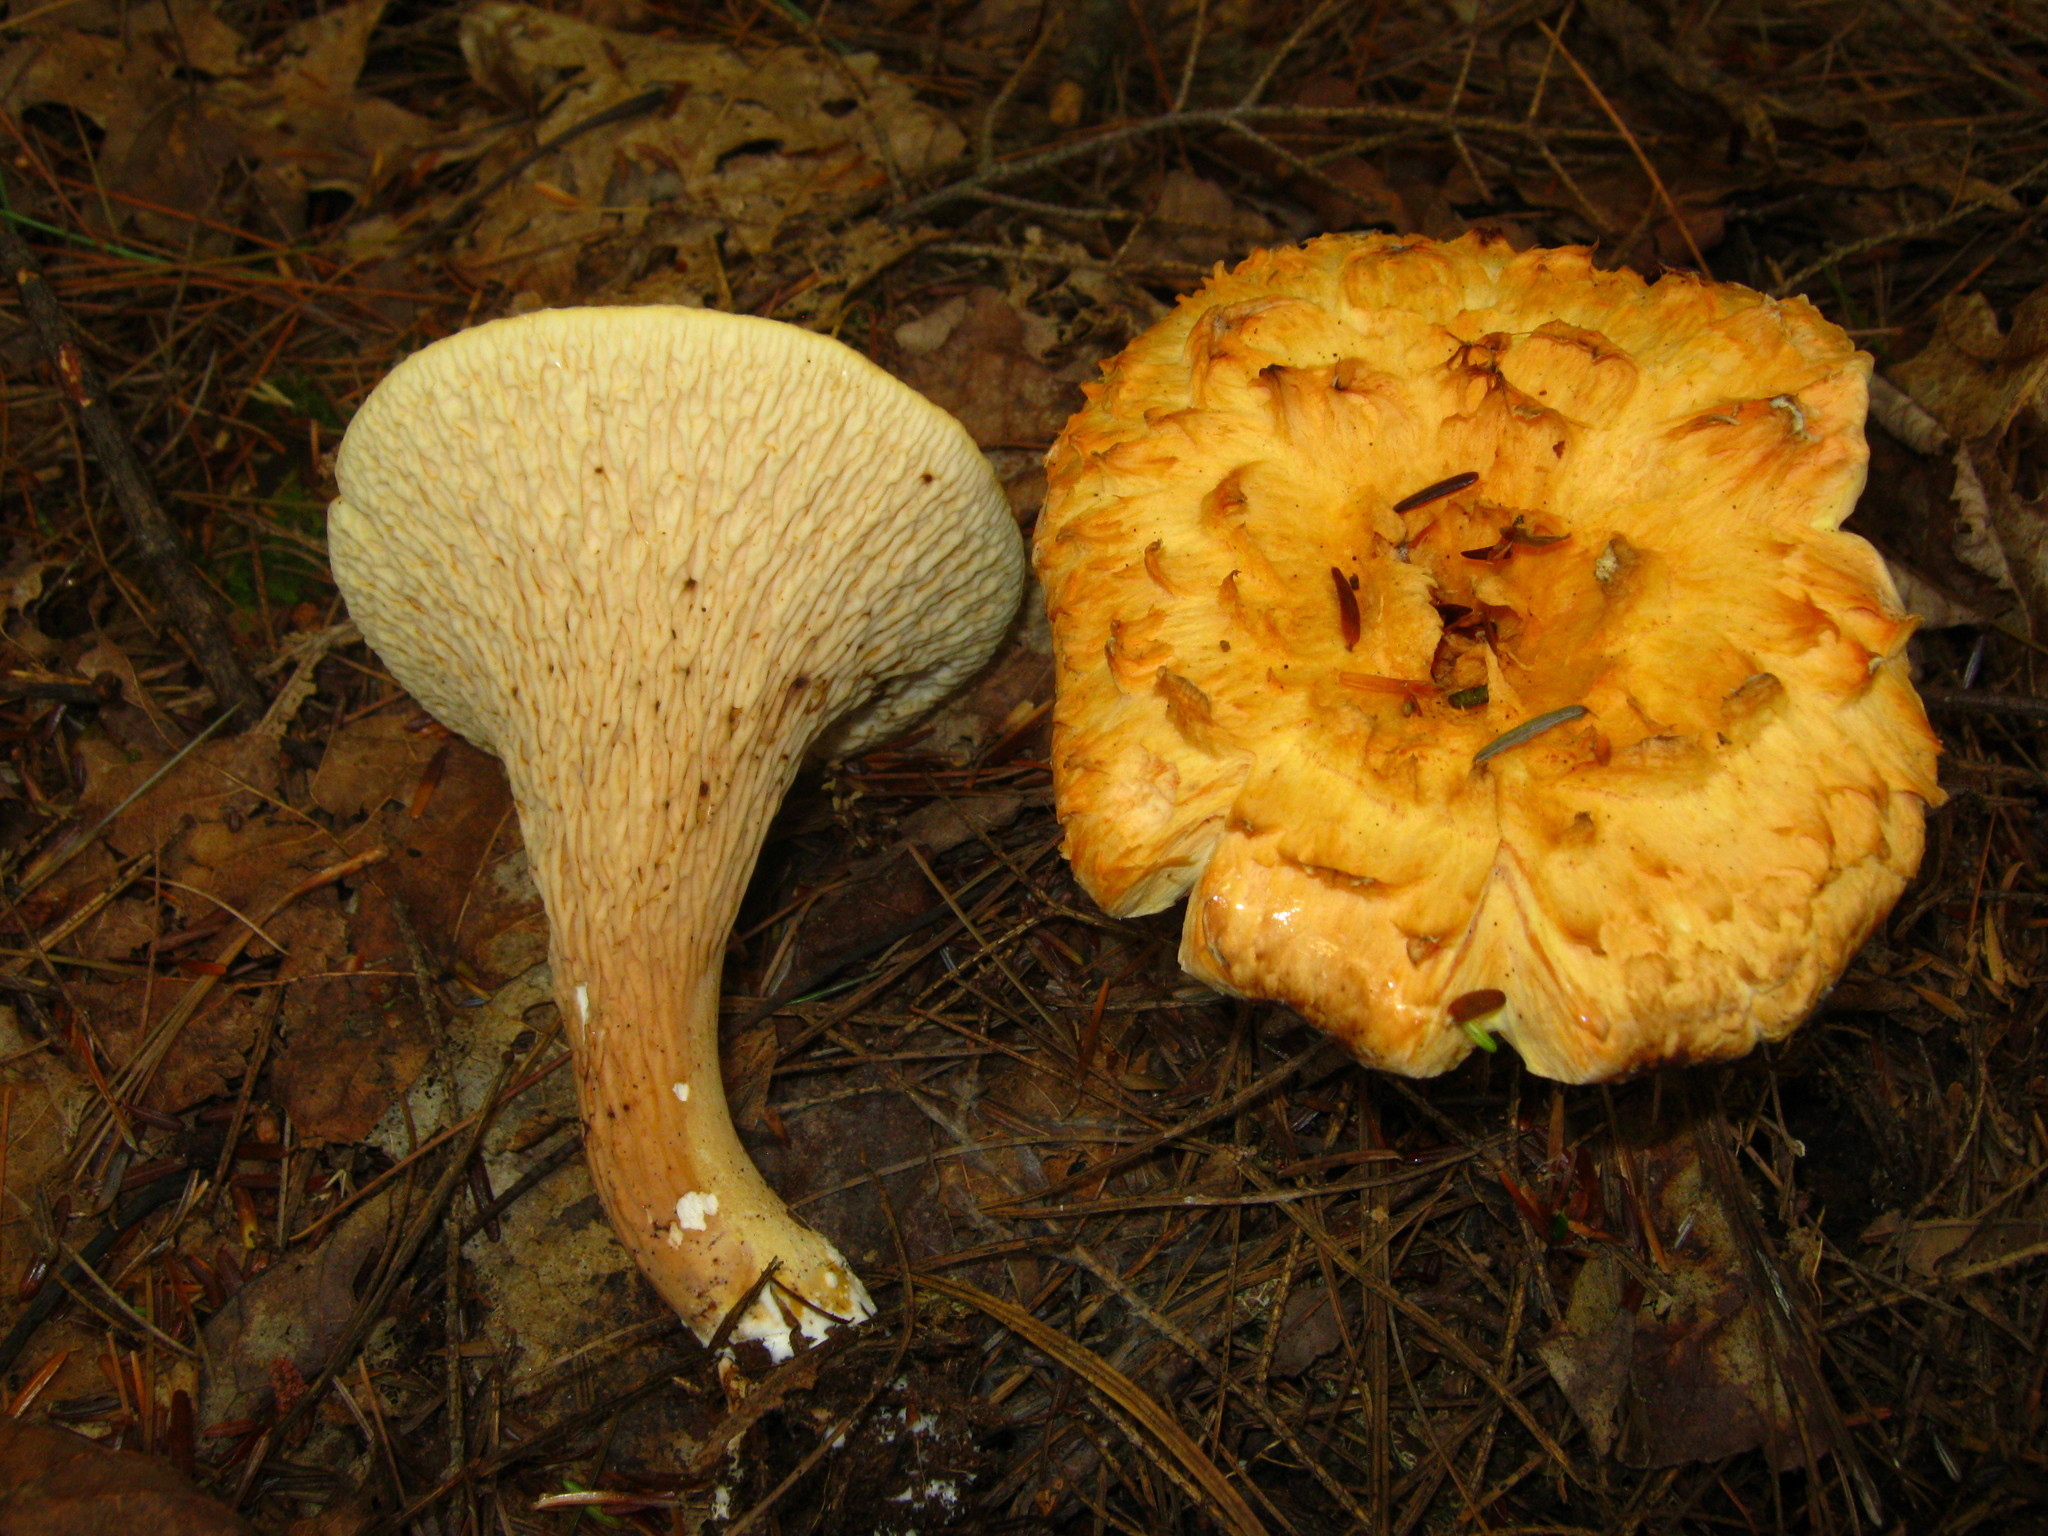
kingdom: Fungi
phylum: Basidiomycota
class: Agaricomycetes
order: Gomphales
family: Gomphaceae
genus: Turbinellus
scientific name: Turbinellus floccosus
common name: Scaly chanterelle
